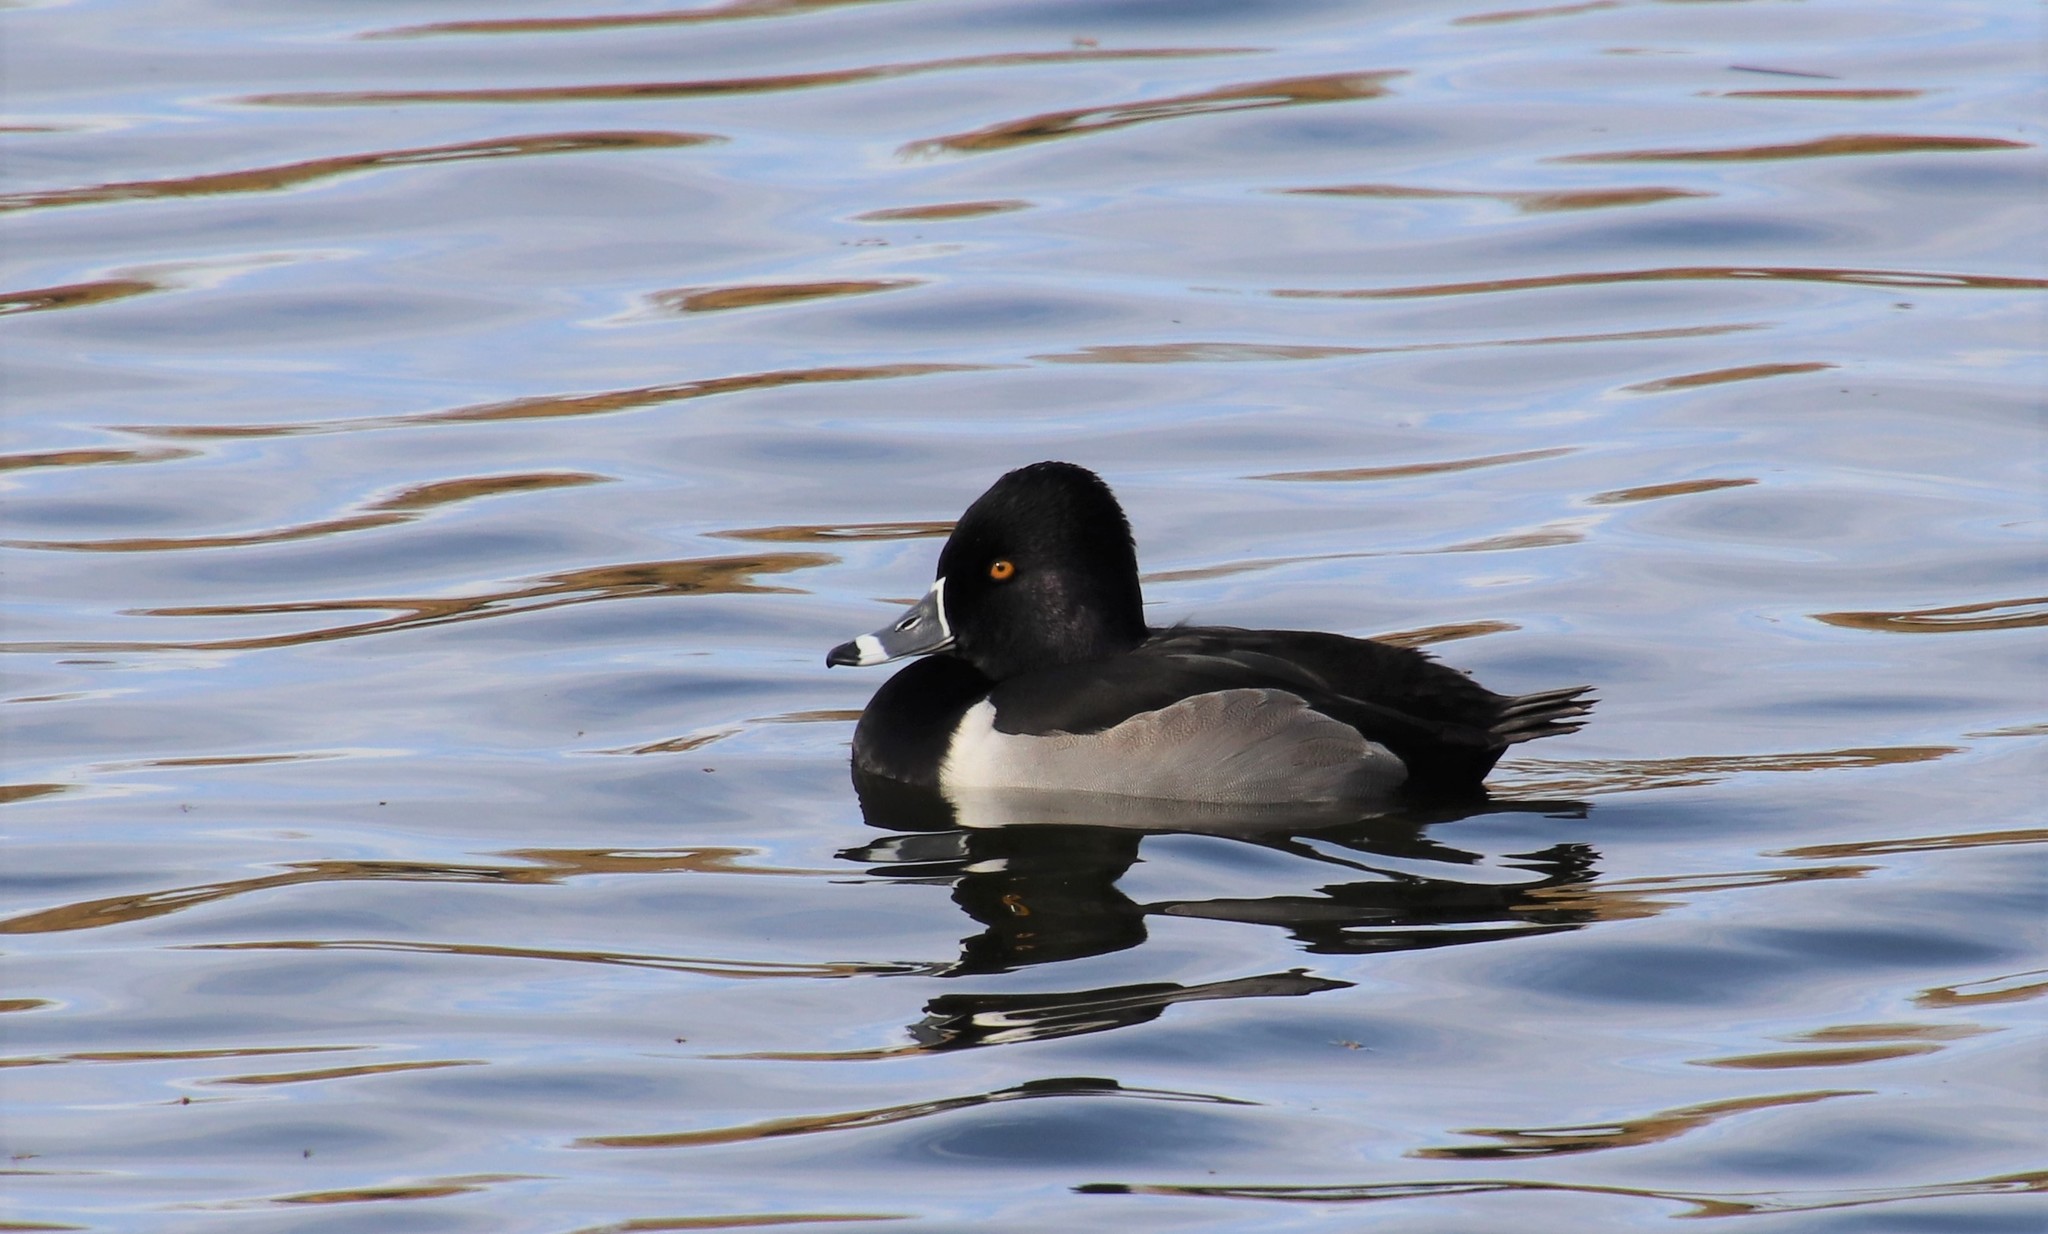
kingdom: Animalia
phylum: Chordata
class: Aves
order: Anseriformes
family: Anatidae
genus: Aythya
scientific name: Aythya collaris
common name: Ring-necked duck
